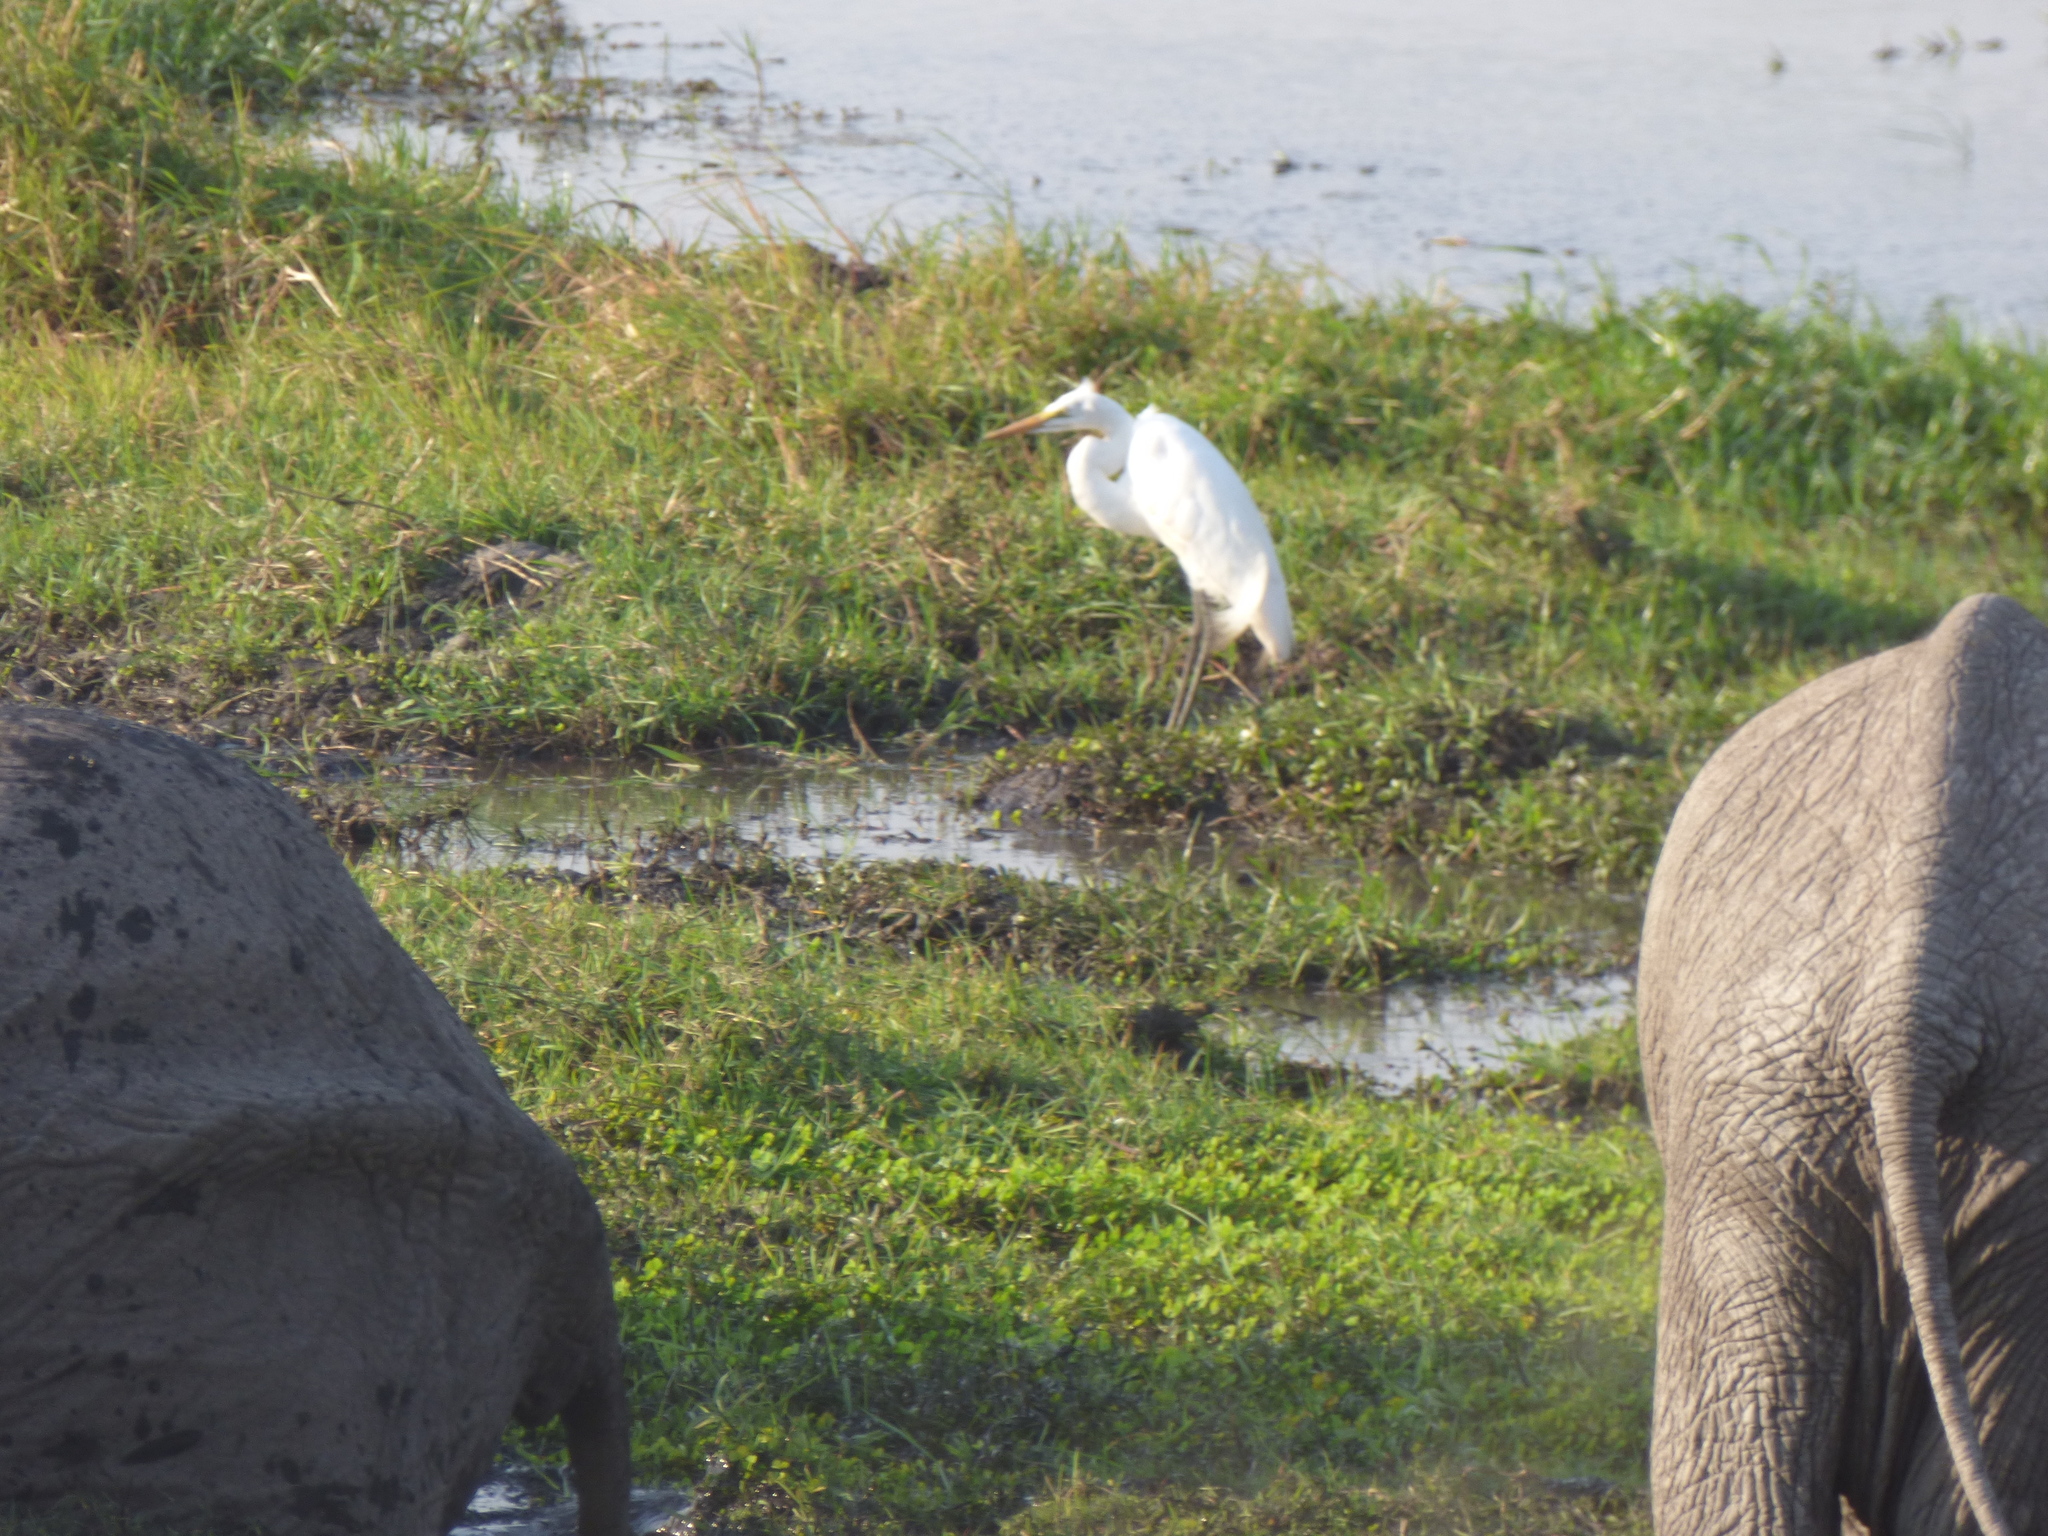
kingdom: Animalia
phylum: Chordata
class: Aves
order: Pelecaniformes
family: Ardeidae
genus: Ardea
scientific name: Ardea alba
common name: Great egret
